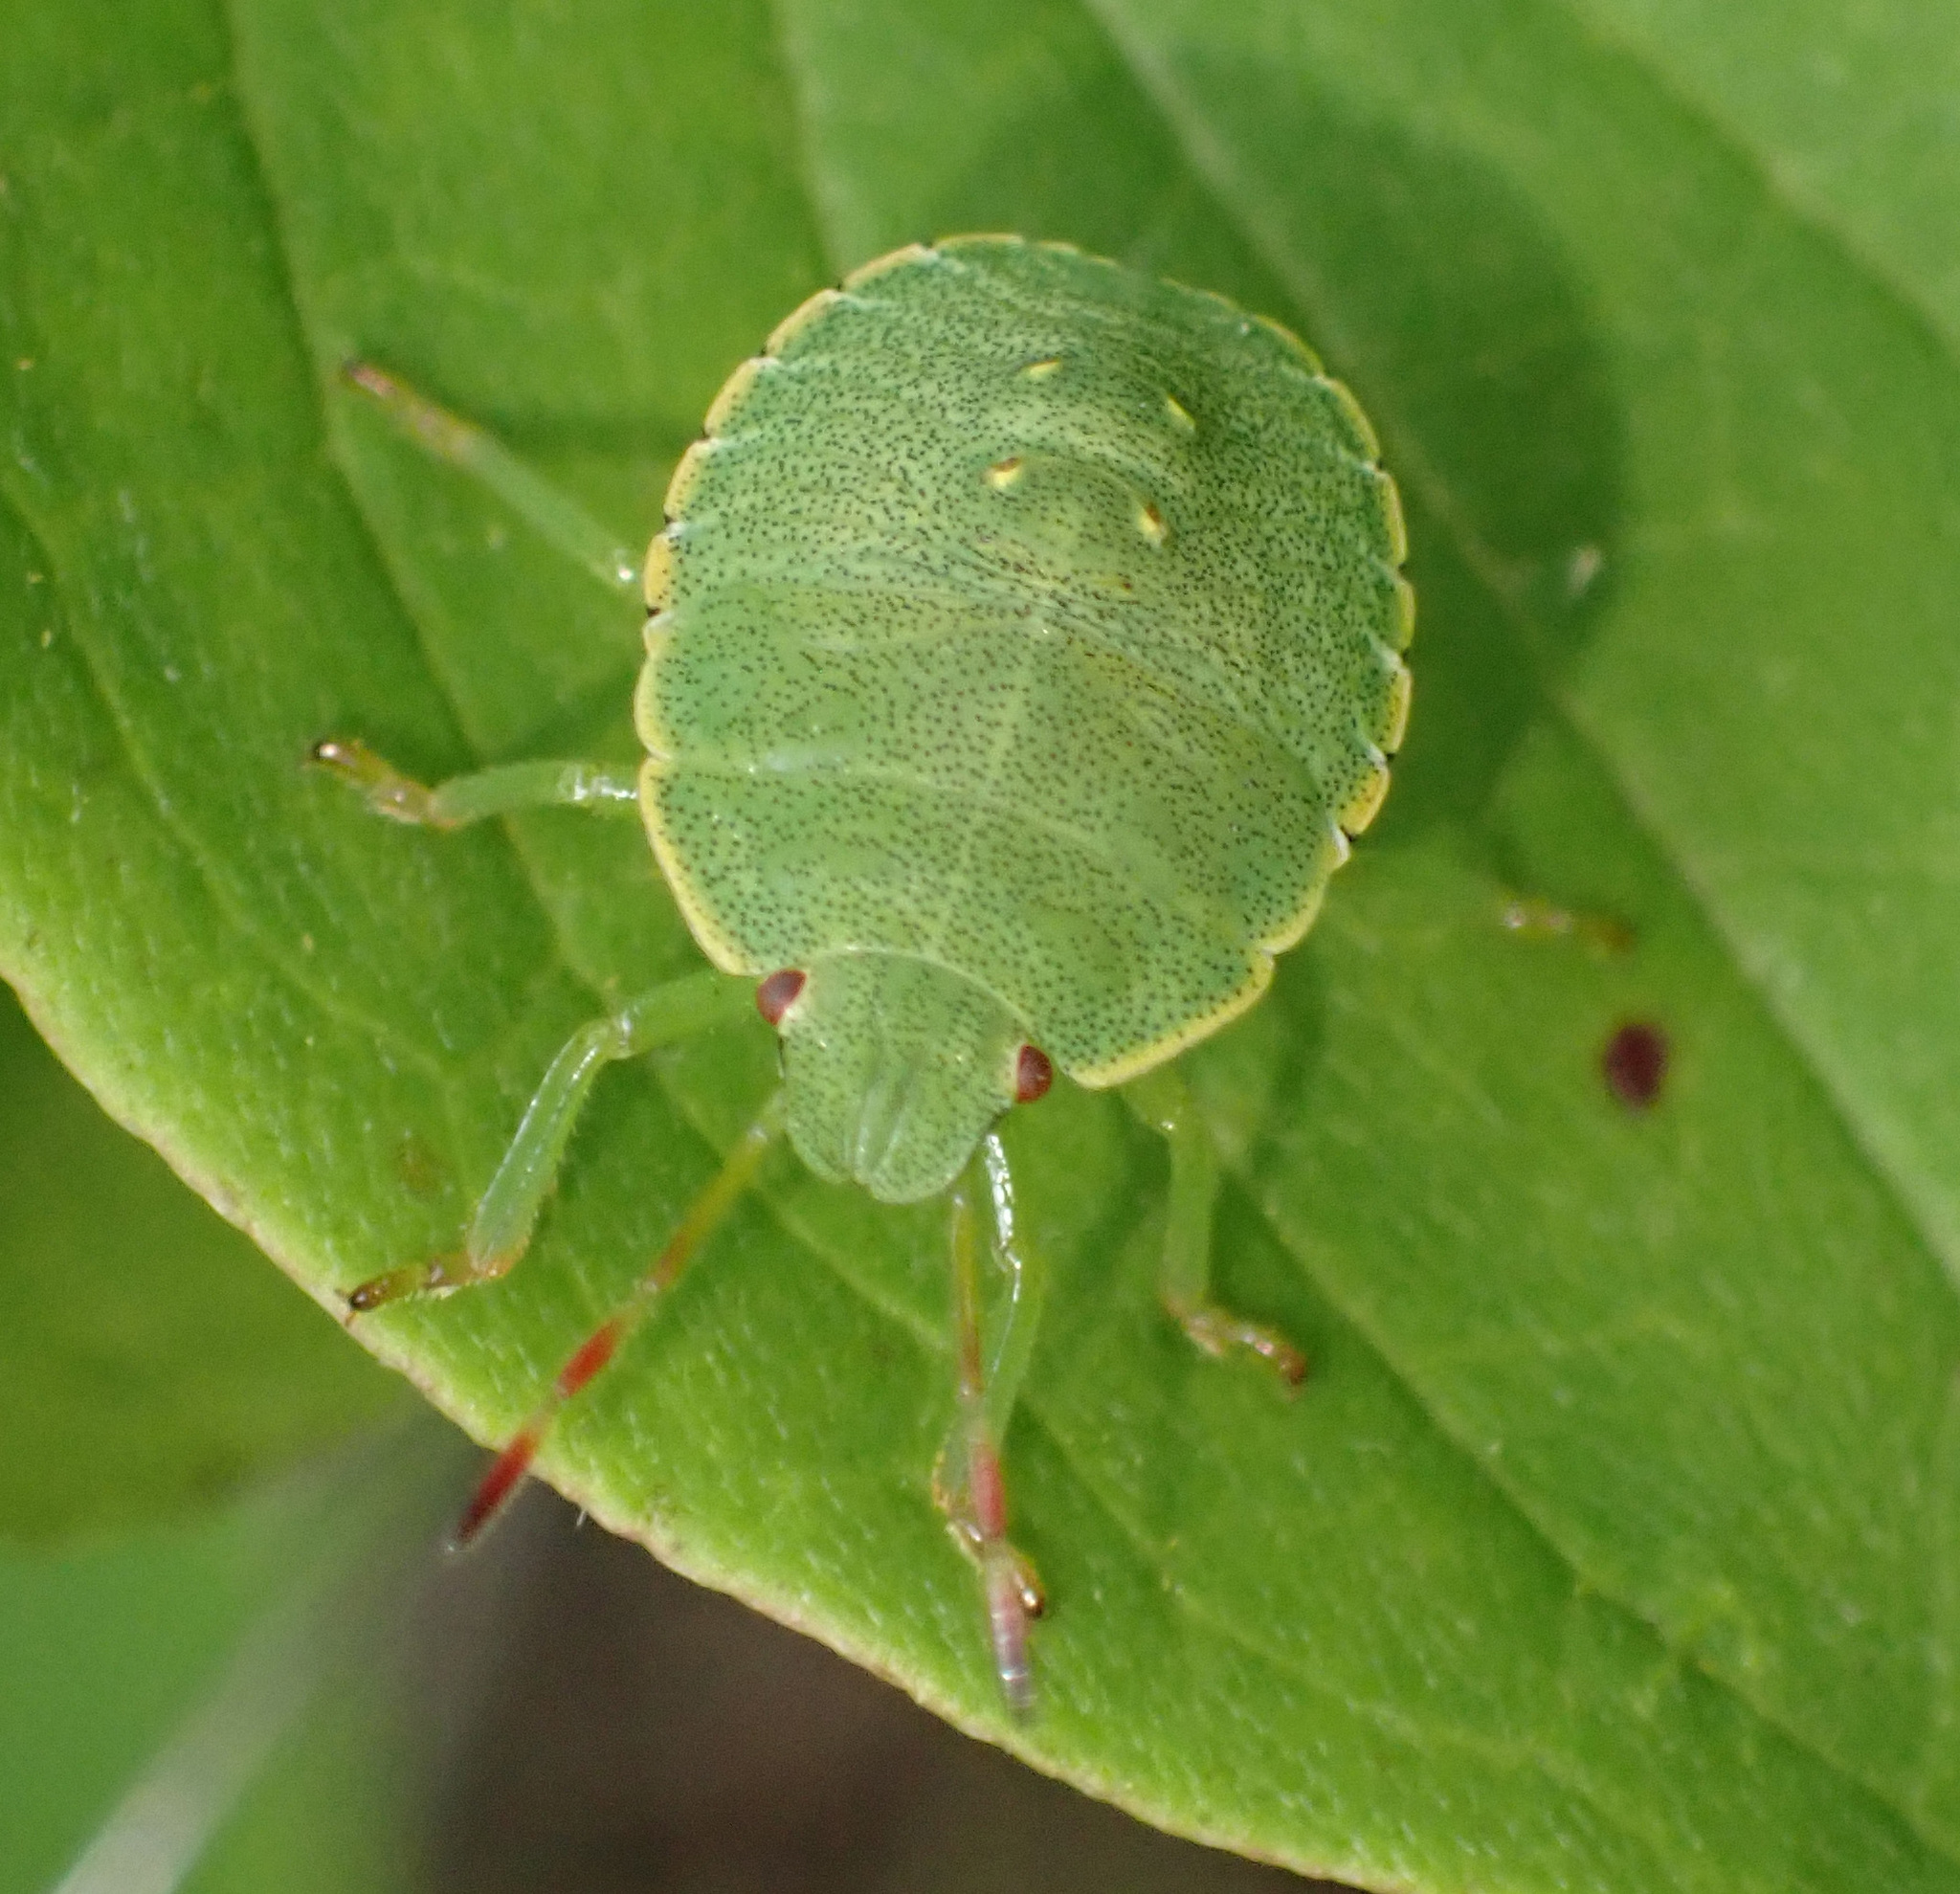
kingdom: Animalia
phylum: Arthropoda
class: Insecta
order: Hemiptera
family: Pentatomidae
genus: Palomena
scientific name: Palomena prasina
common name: Green shieldbug
